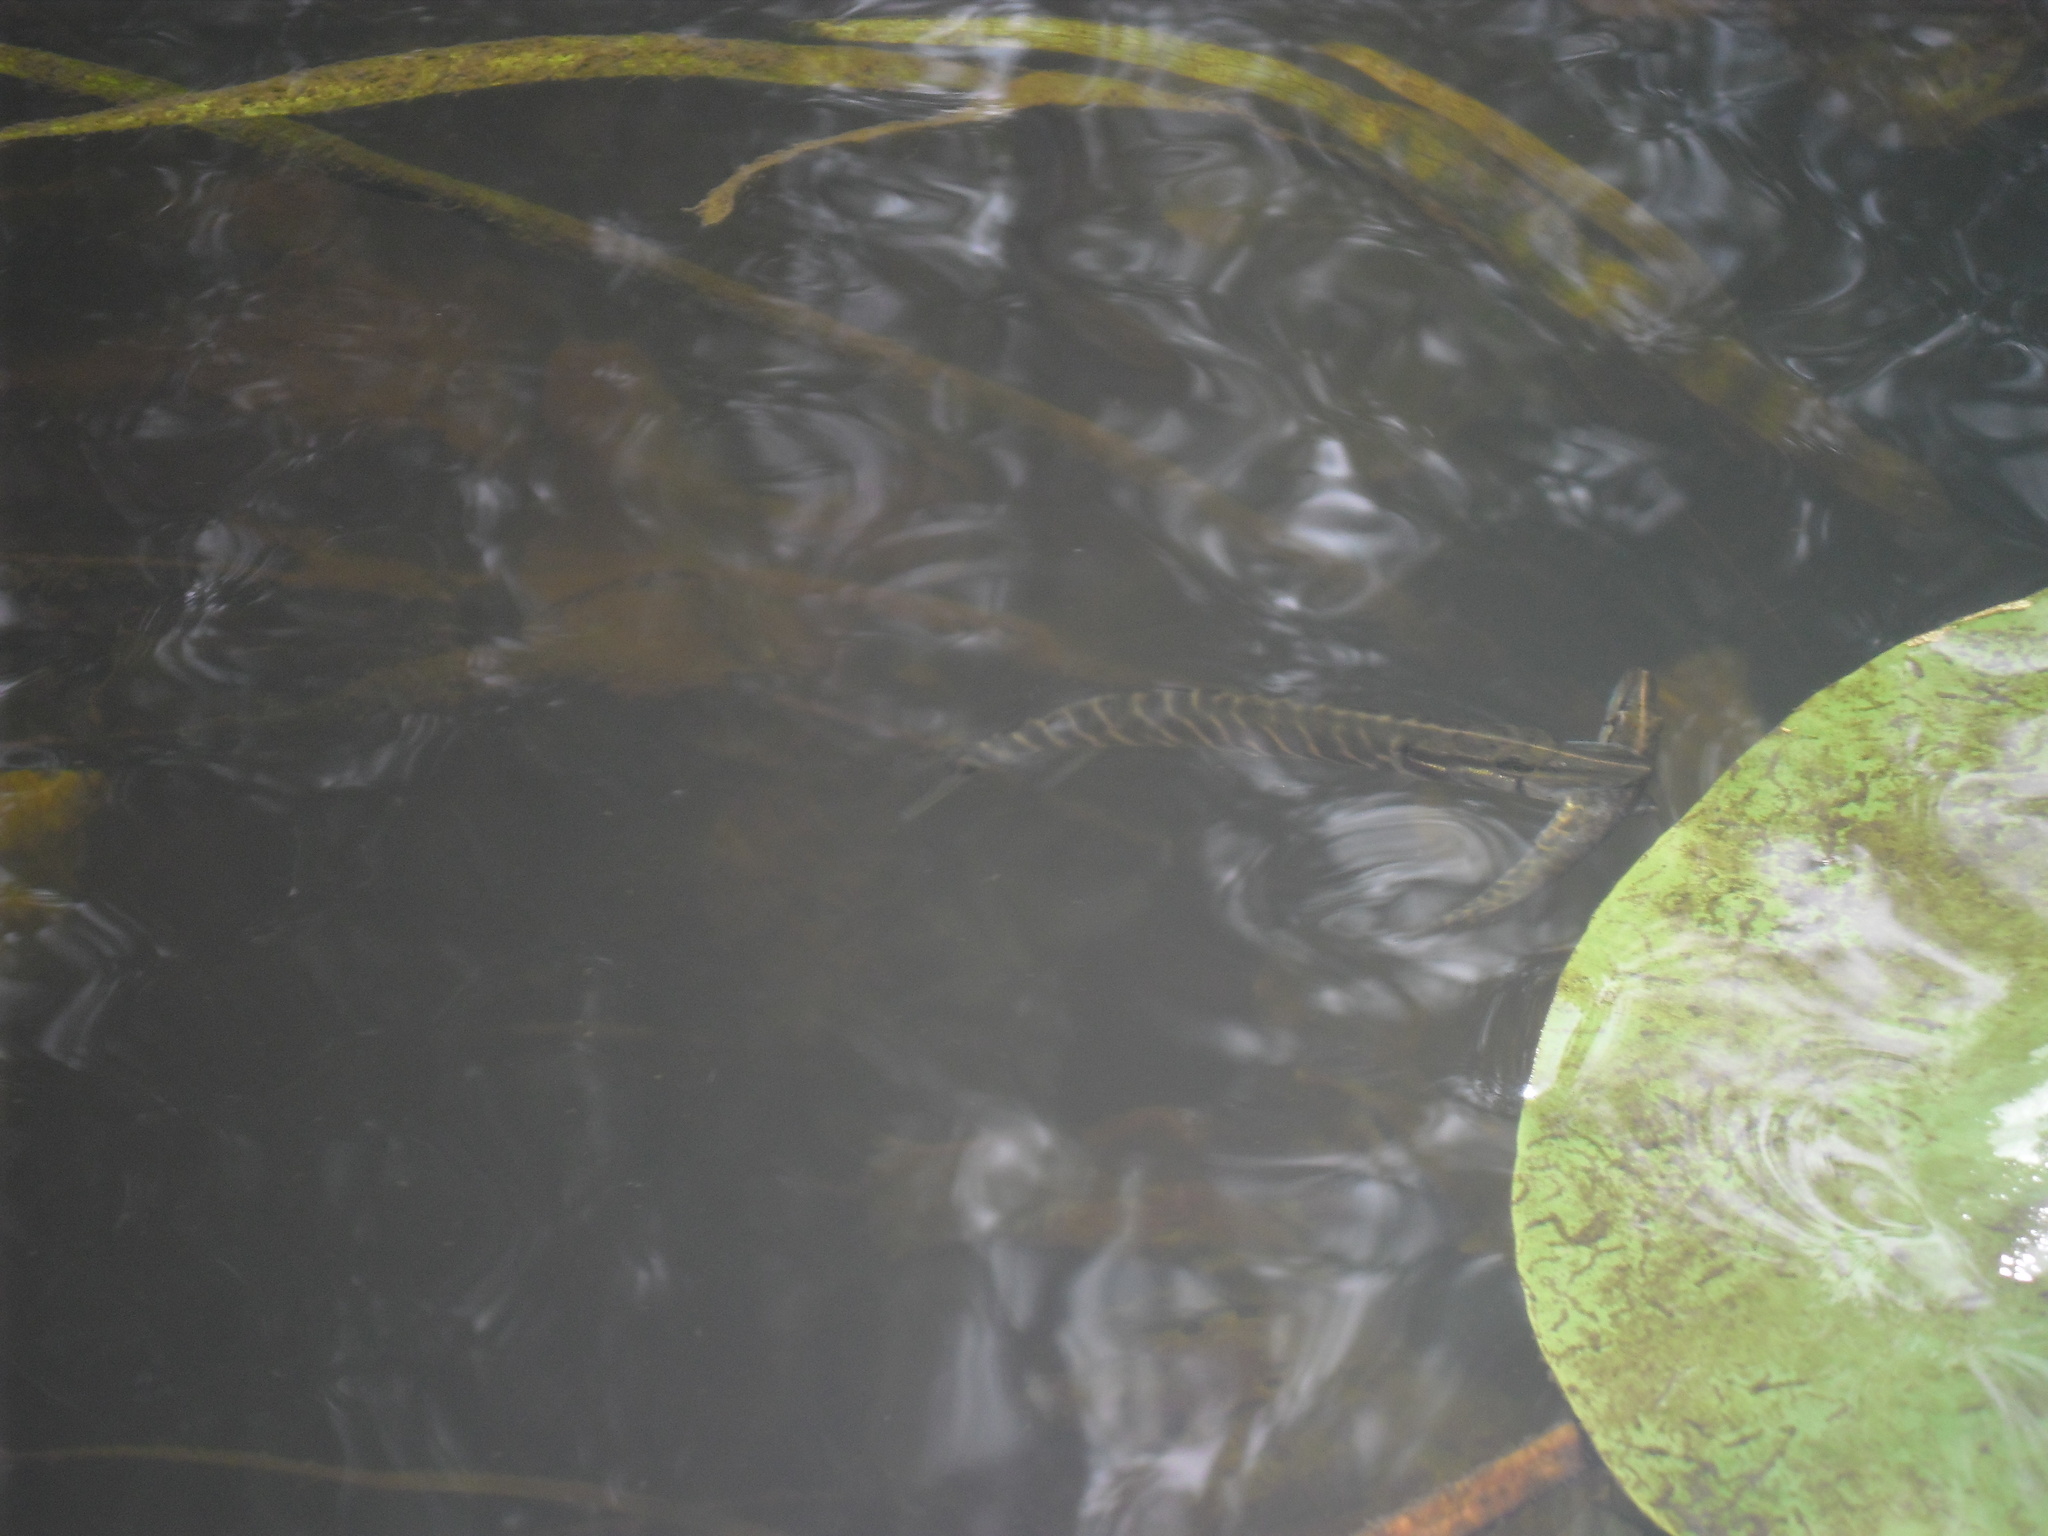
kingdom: Animalia
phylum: Chordata
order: Esociformes
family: Esocidae
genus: Esox
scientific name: Esox lucius
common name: Northern pike
